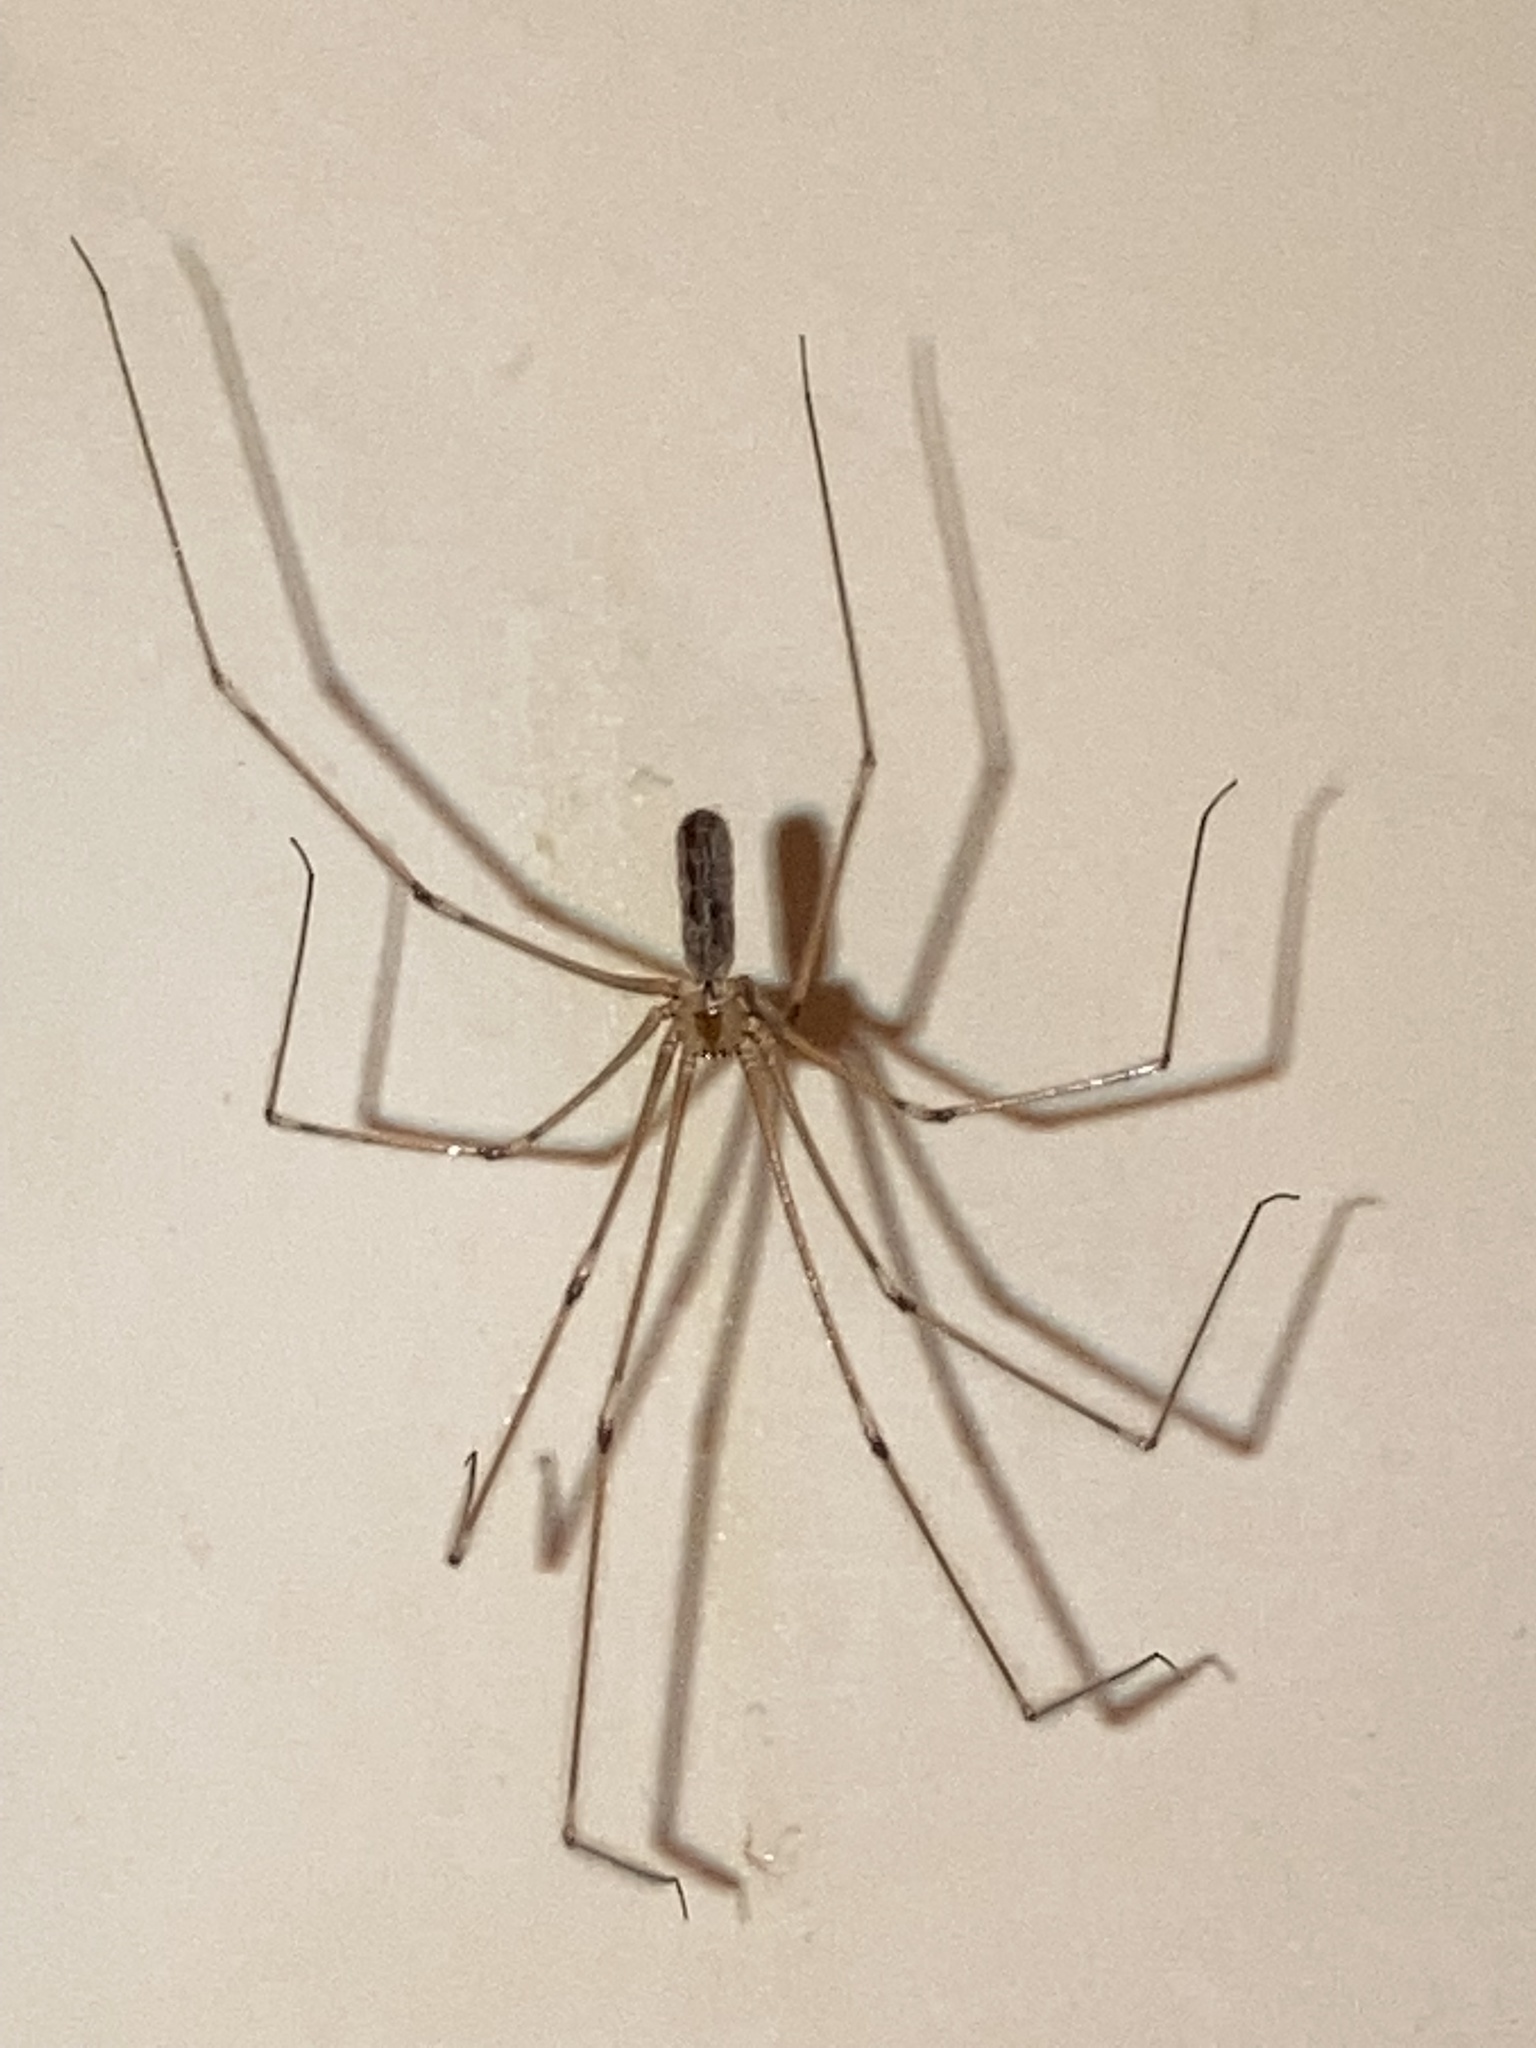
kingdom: Animalia
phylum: Arthropoda
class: Arachnida
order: Araneae
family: Pholcidae
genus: Pholcus
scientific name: Pholcus phalangioides
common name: Longbodied cellar spider
